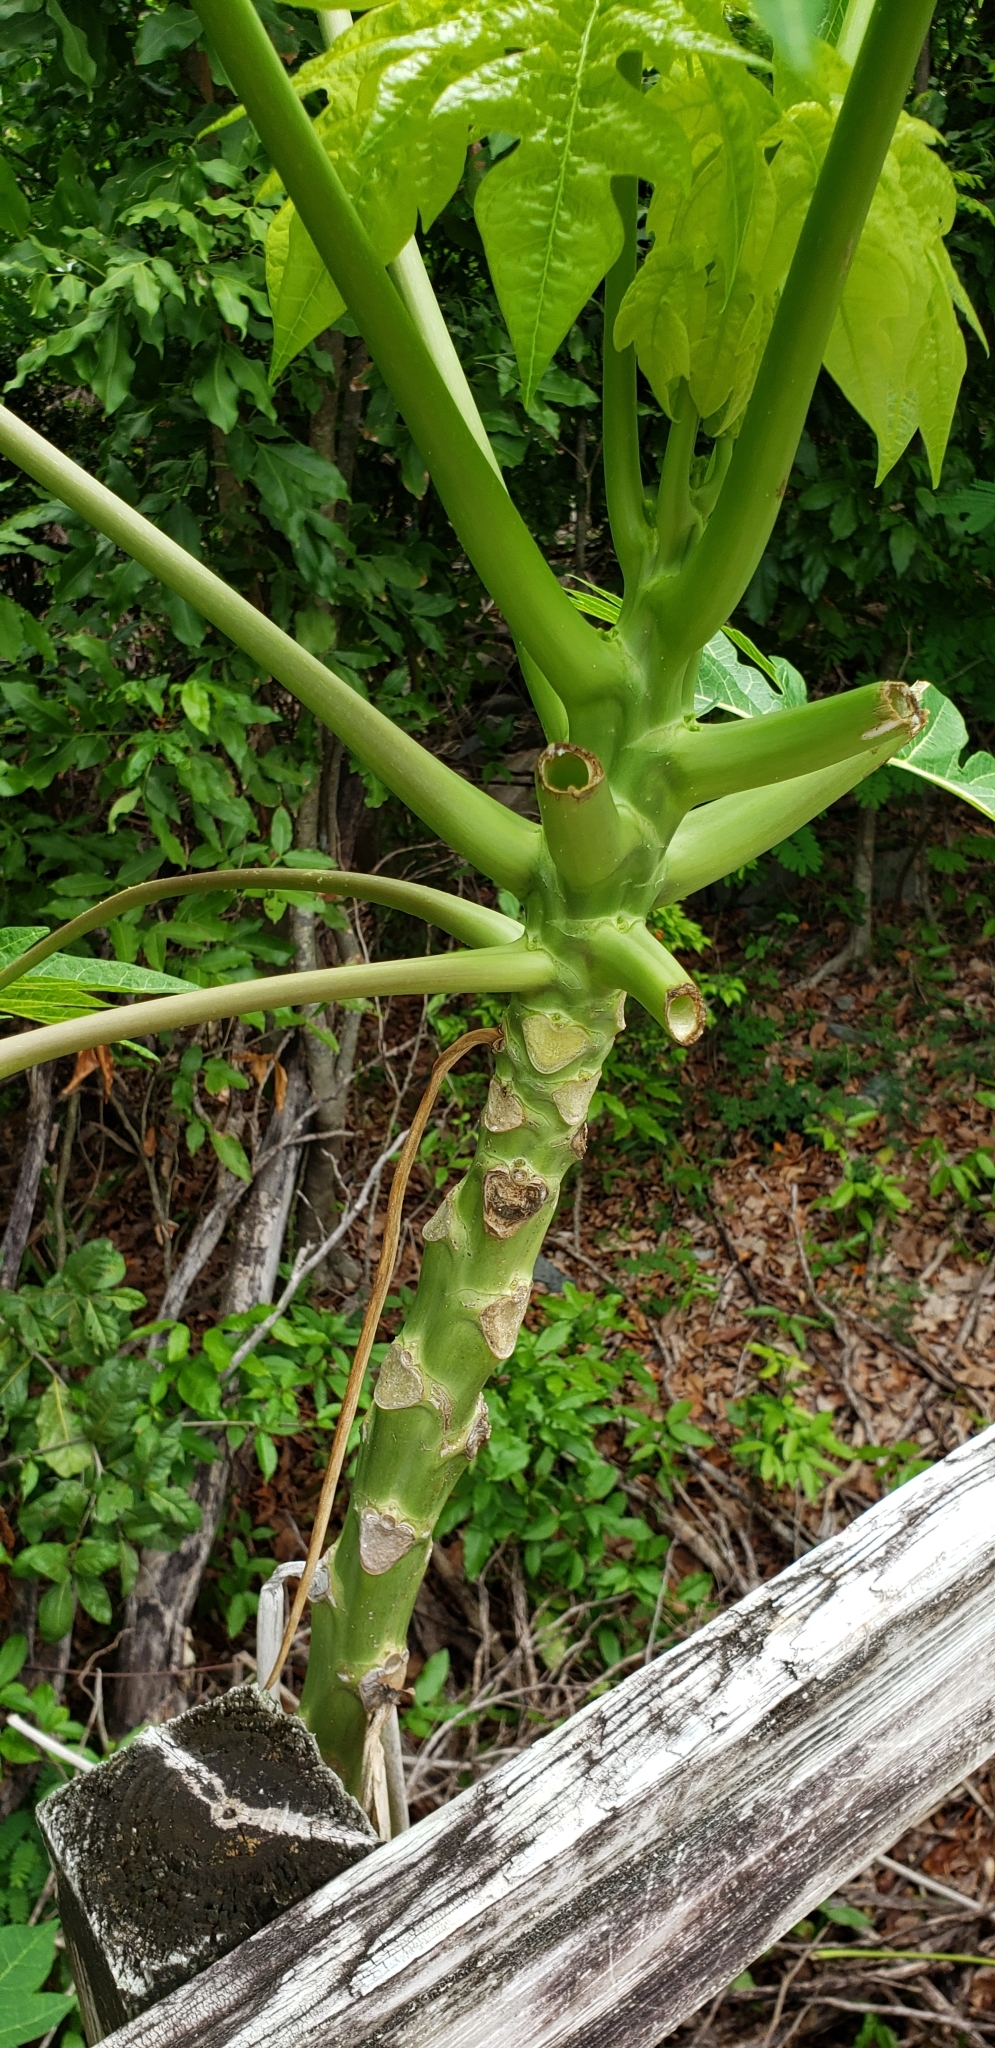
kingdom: Plantae
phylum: Tracheophyta
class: Magnoliopsida
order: Brassicales
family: Caricaceae
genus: Carica
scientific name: Carica papaya
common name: Papaya
